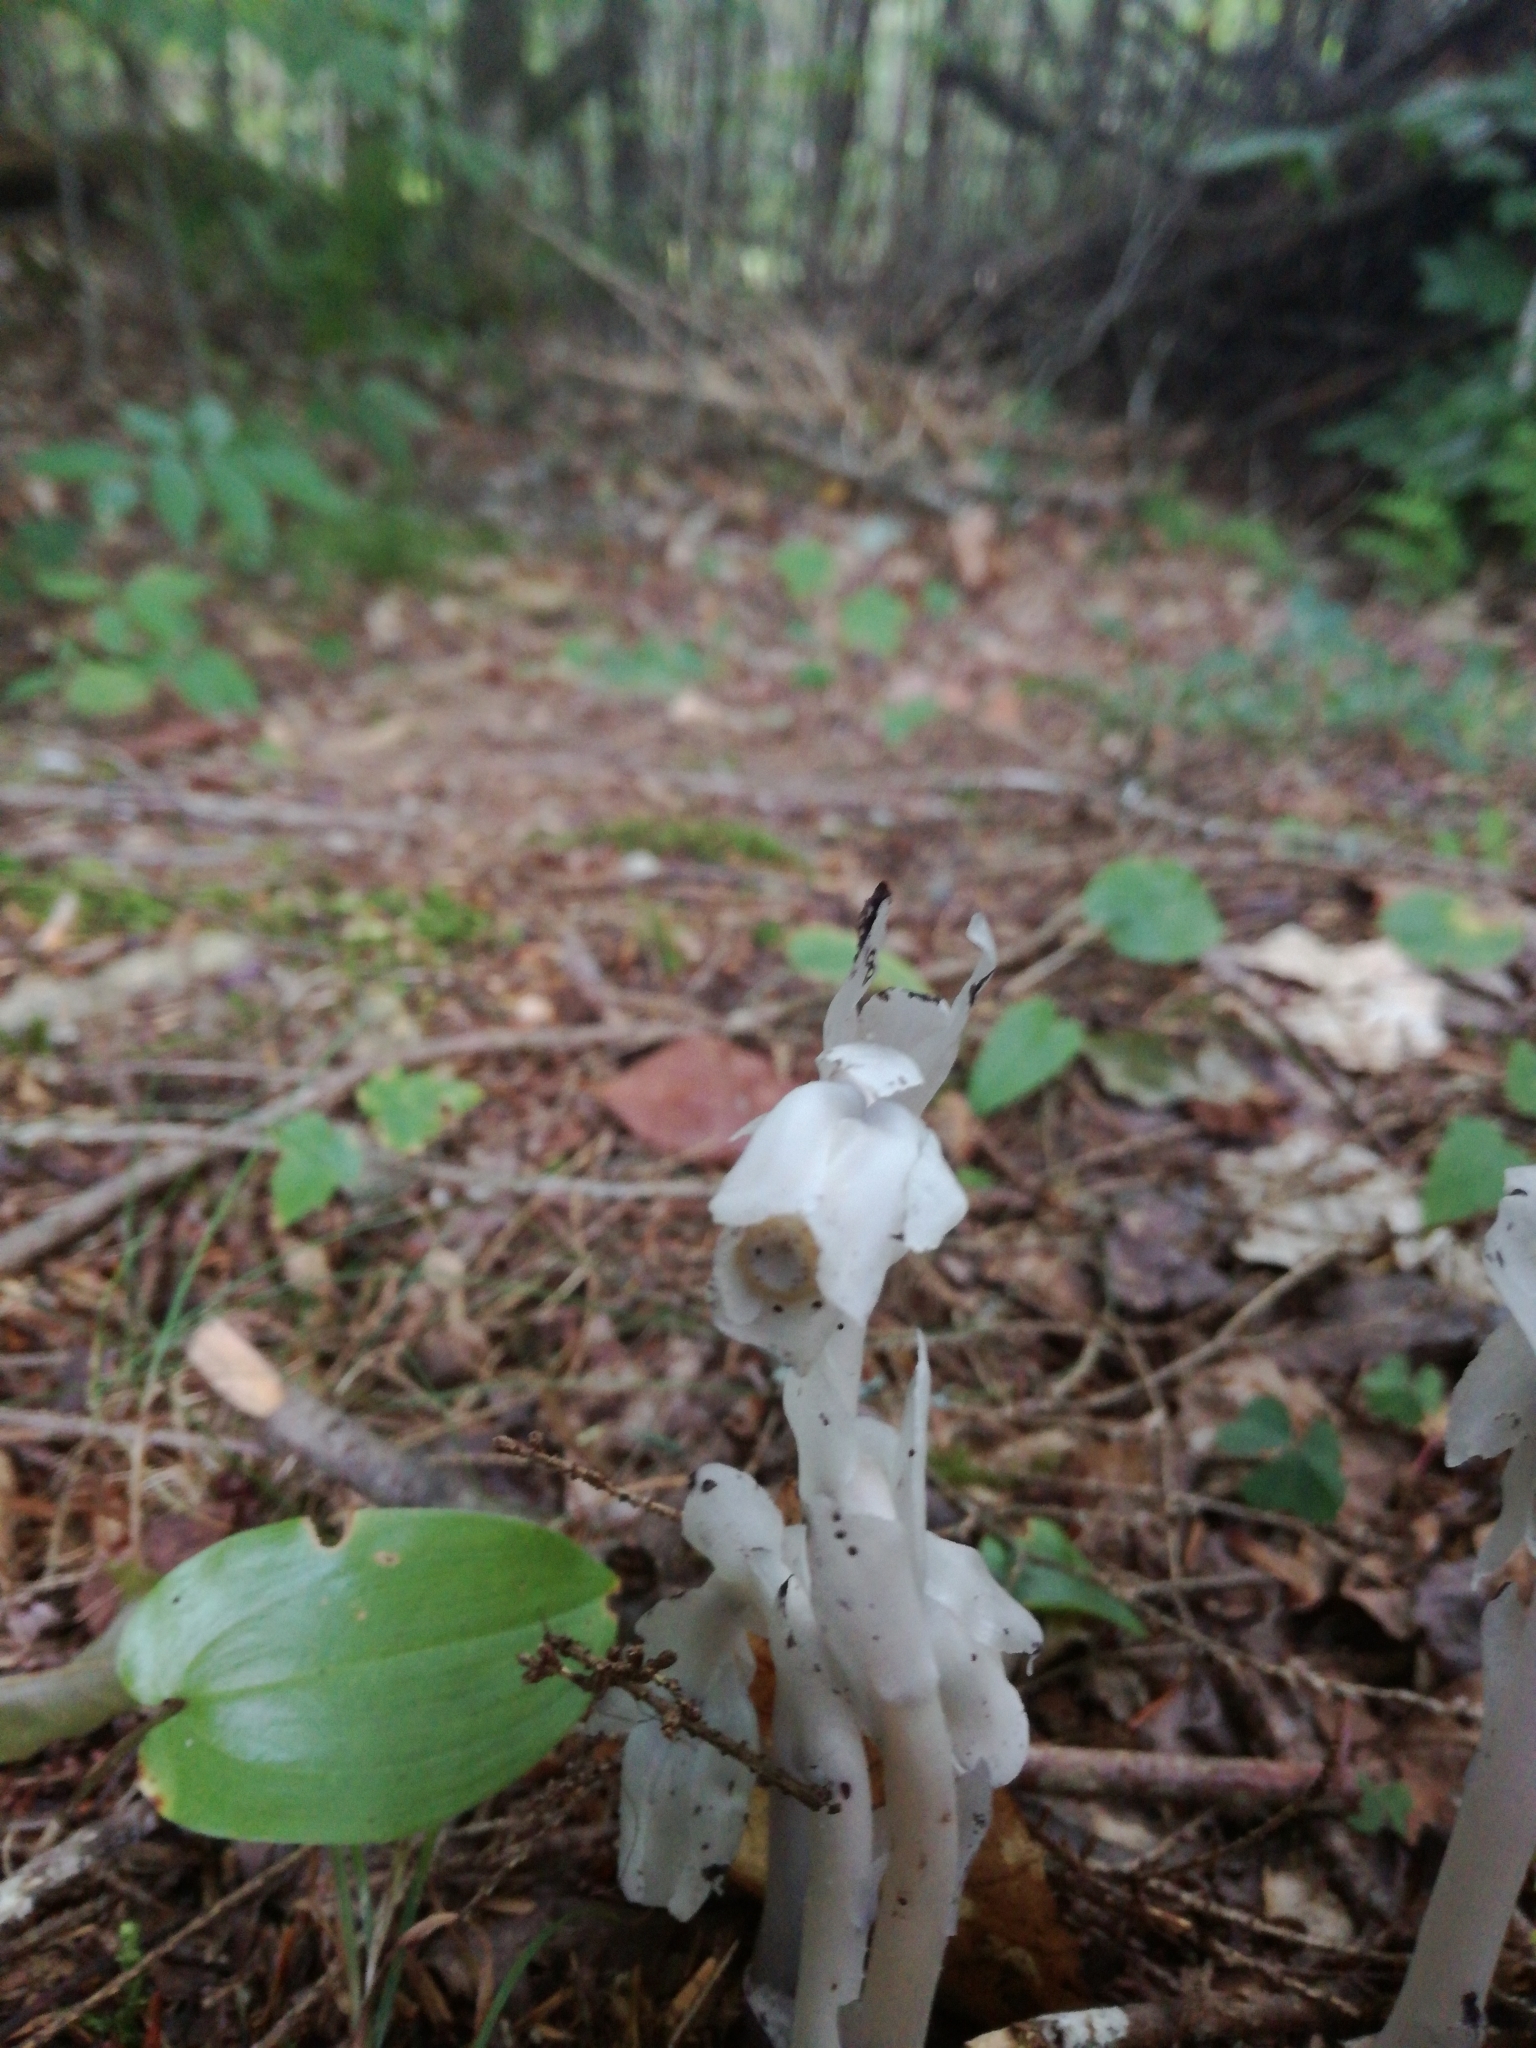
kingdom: Plantae
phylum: Tracheophyta
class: Magnoliopsida
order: Ericales
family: Ericaceae
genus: Monotropa
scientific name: Monotropa uniflora
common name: Convulsion root
